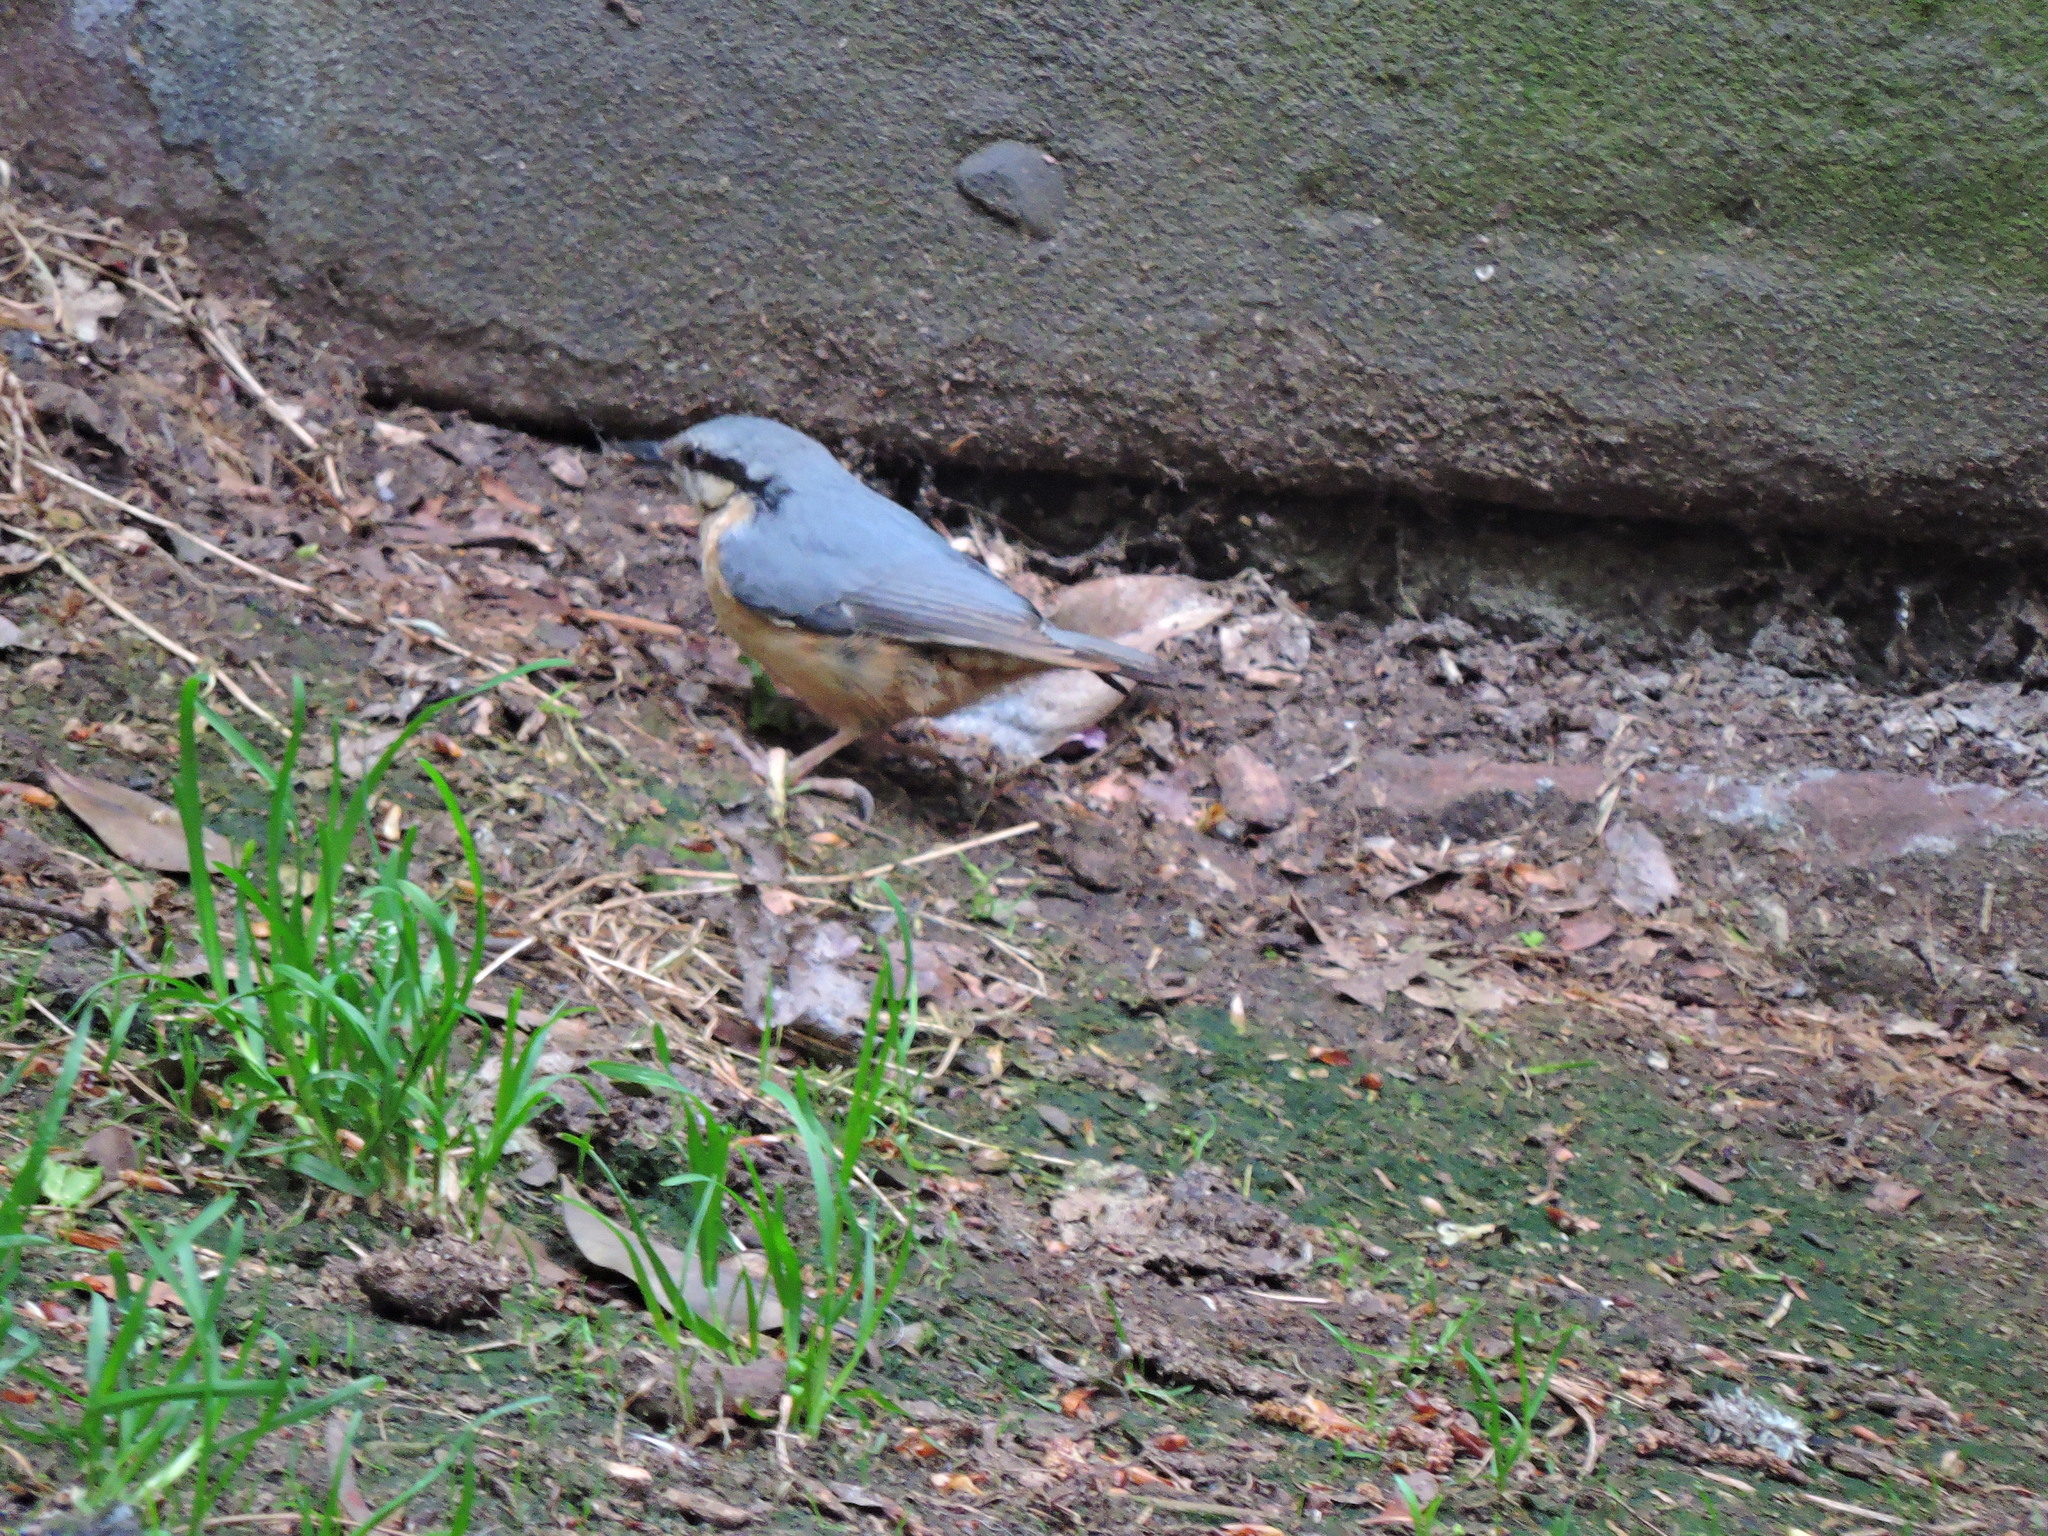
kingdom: Animalia
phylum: Chordata
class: Aves
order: Passeriformes
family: Sittidae
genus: Sitta
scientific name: Sitta europaea
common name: Eurasian nuthatch
